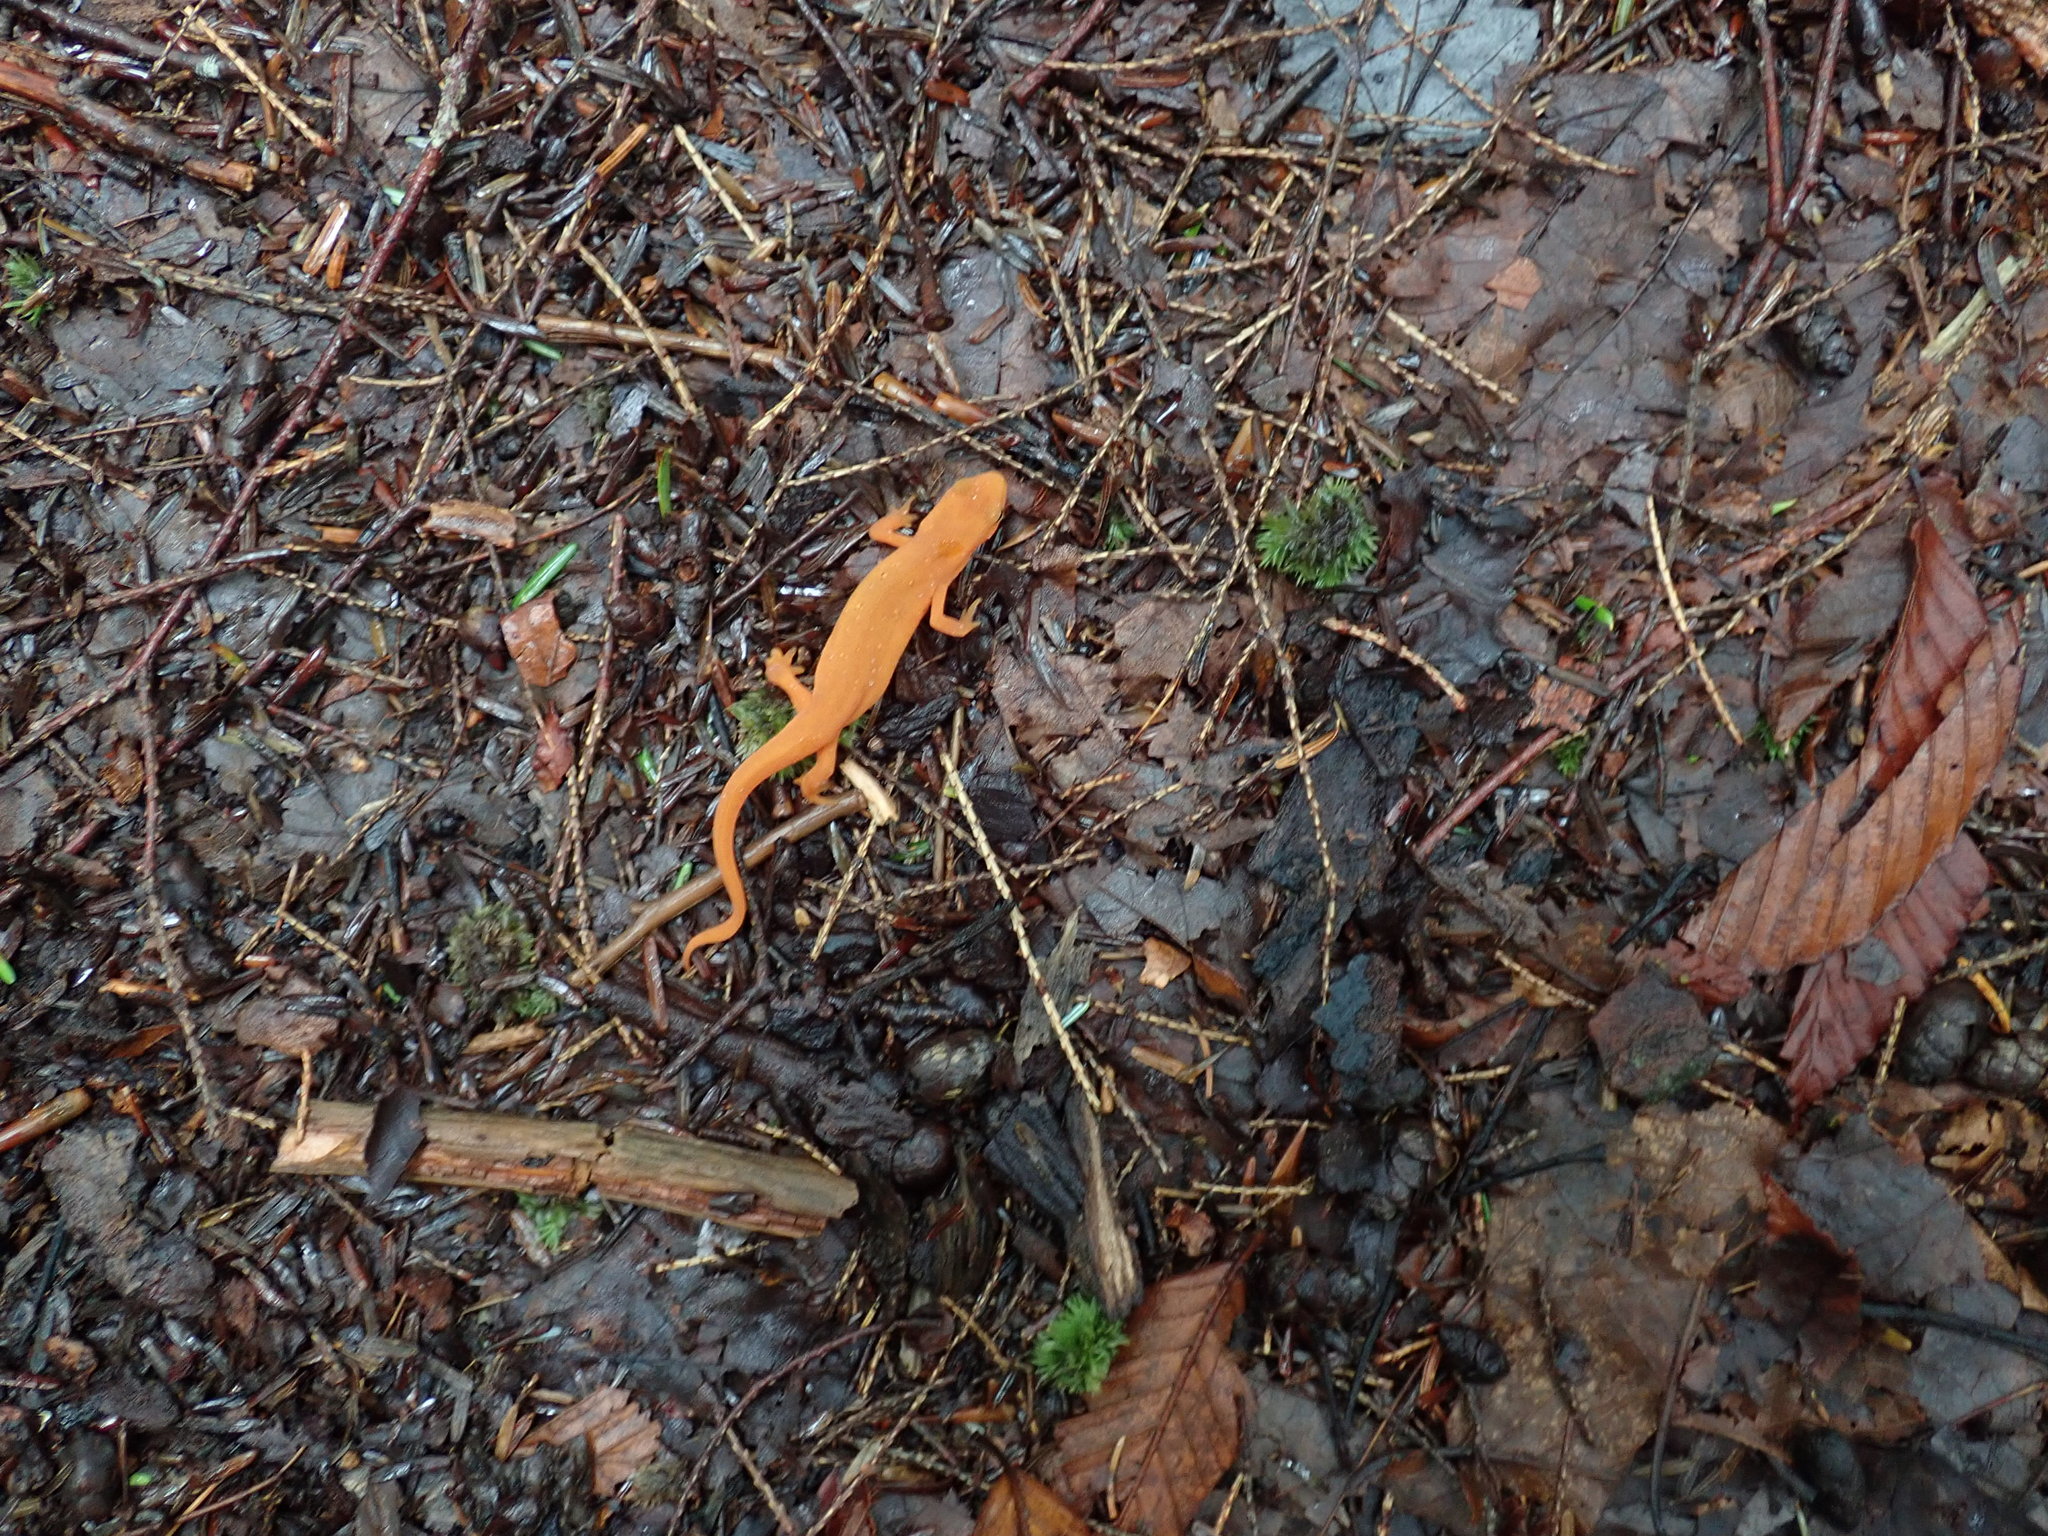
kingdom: Animalia
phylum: Chordata
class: Amphibia
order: Caudata
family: Salamandridae
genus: Notophthalmus
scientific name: Notophthalmus viridescens
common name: Eastern newt
